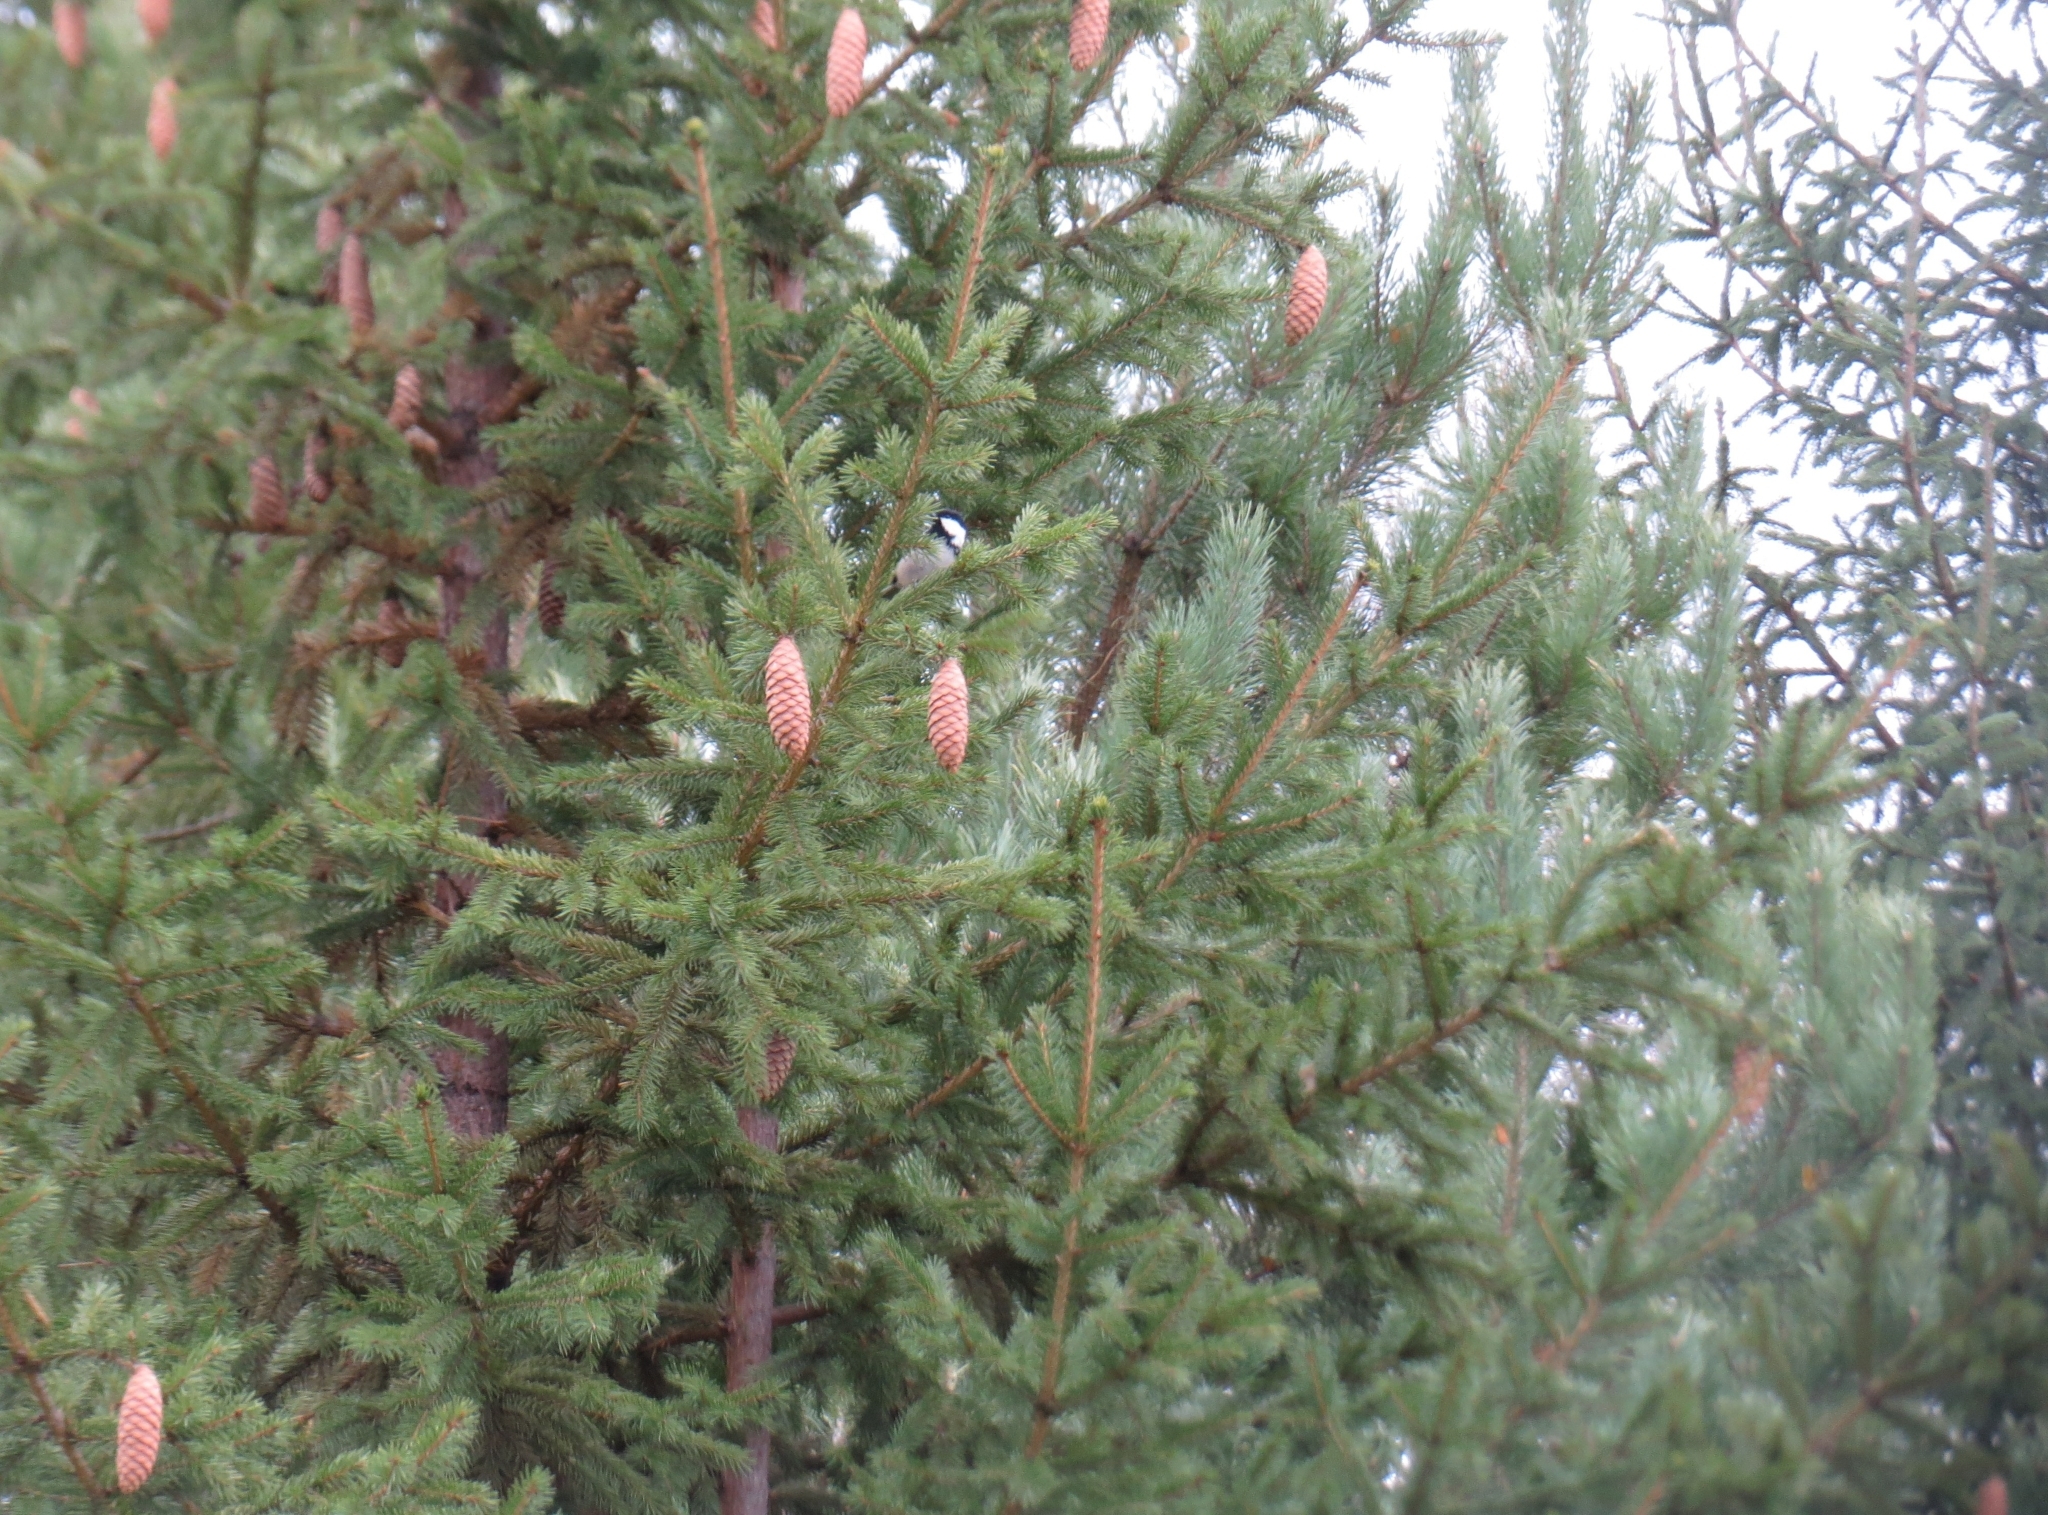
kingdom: Animalia
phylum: Chordata
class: Aves
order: Passeriformes
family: Paridae
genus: Periparus
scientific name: Periparus ater
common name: Coal tit
